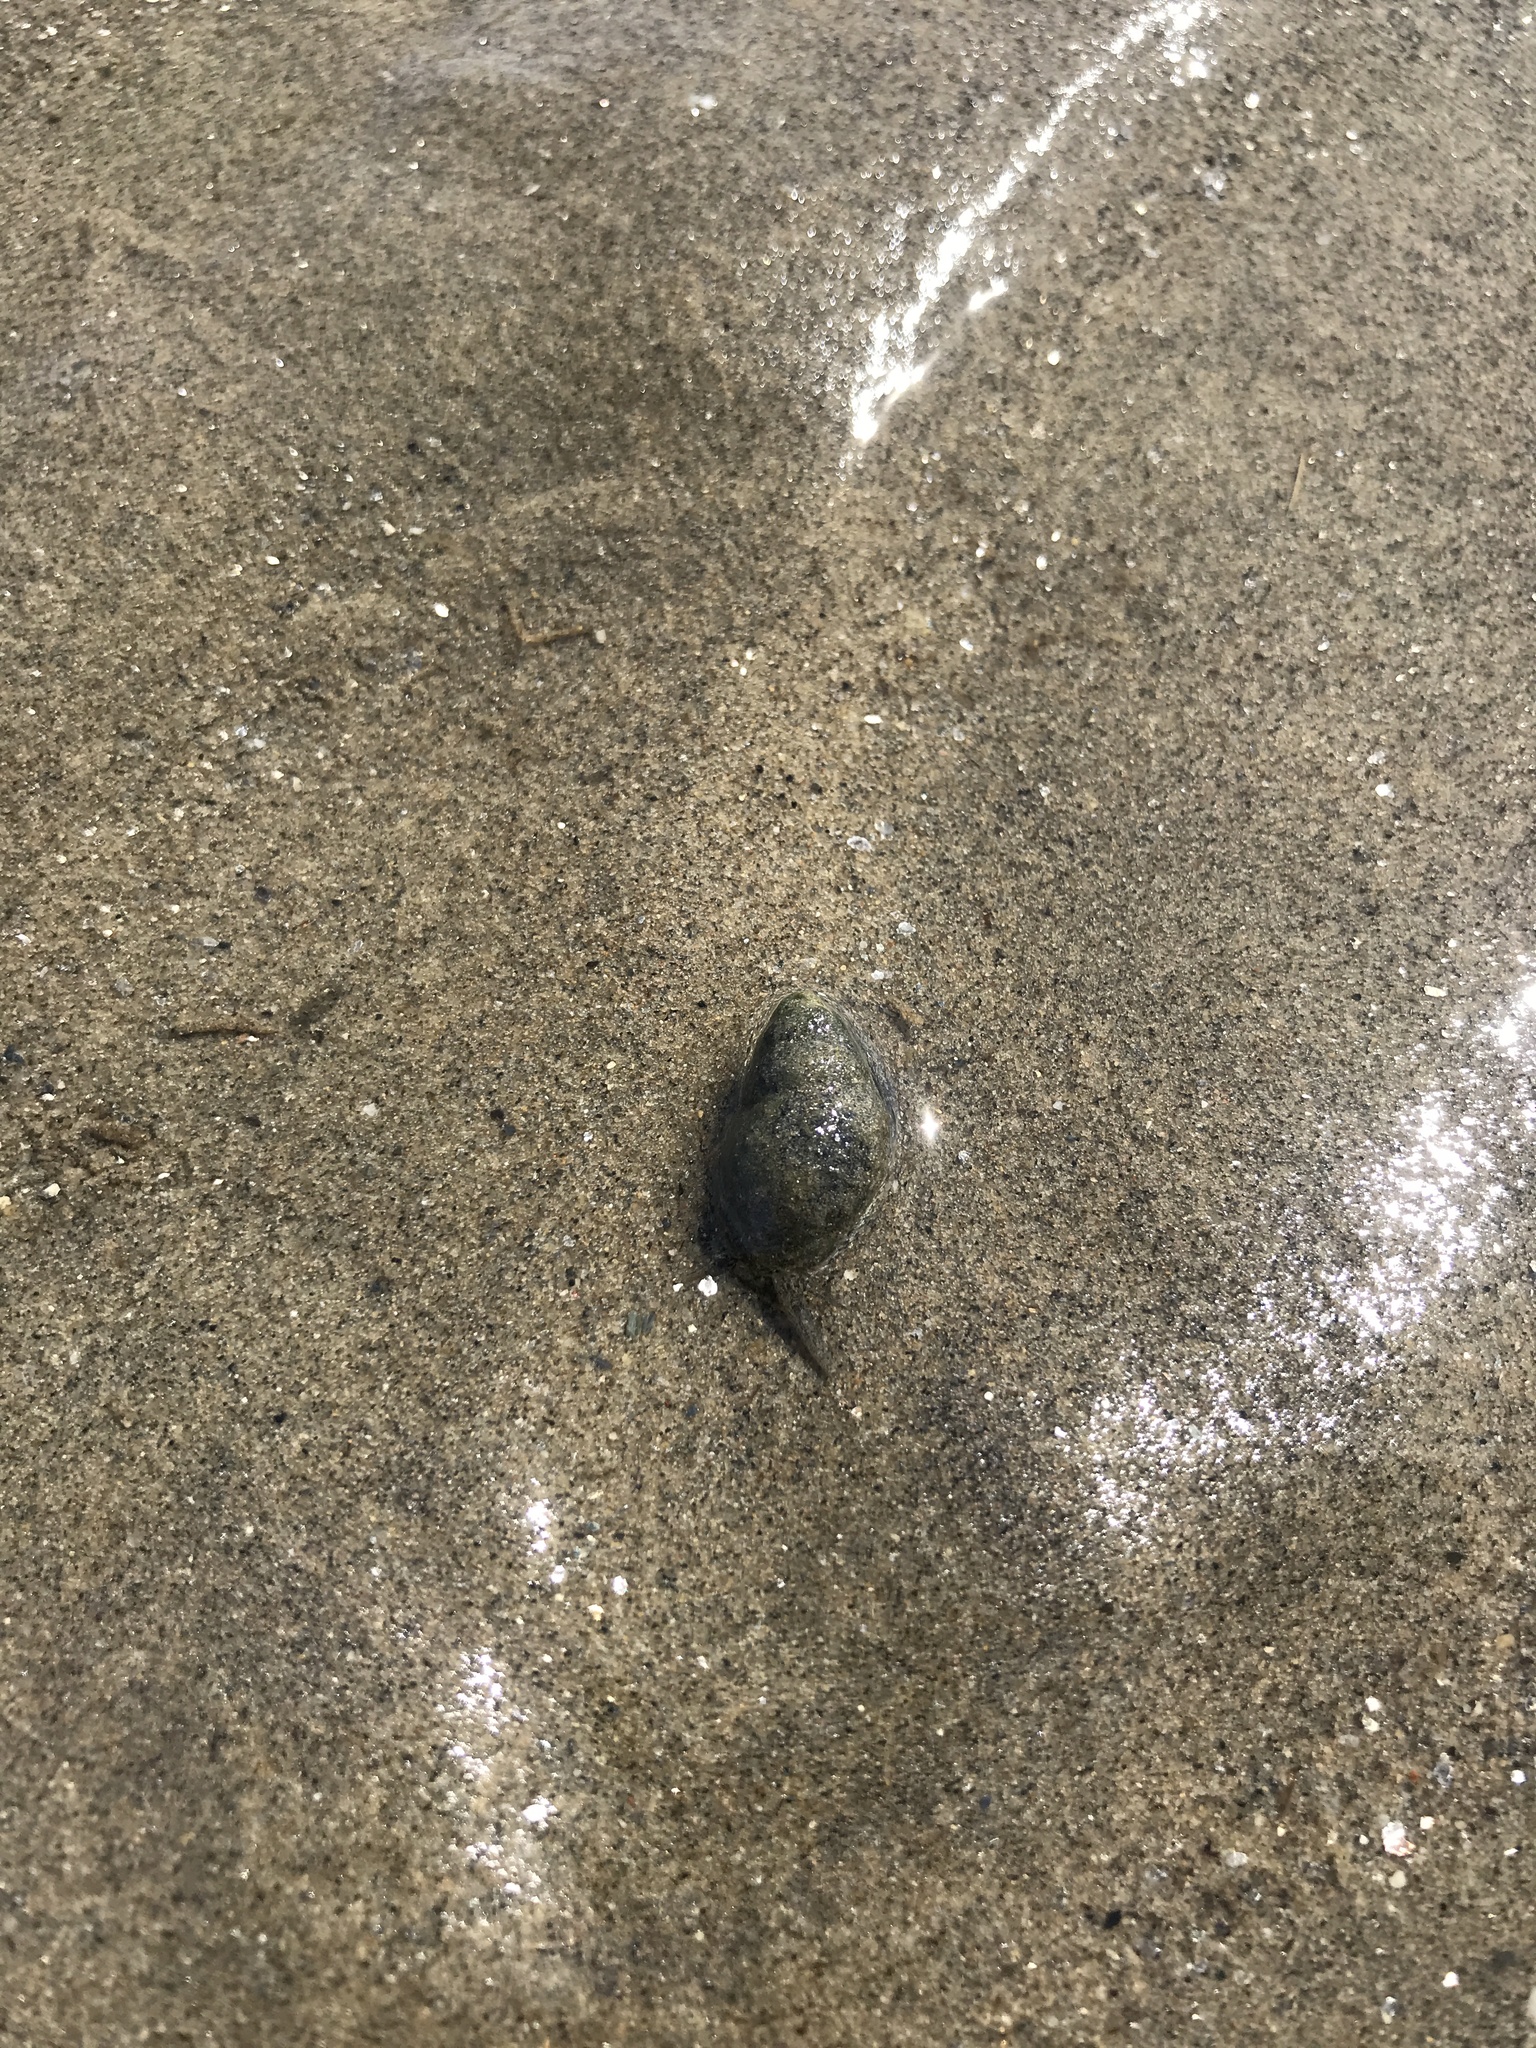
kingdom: Animalia
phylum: Mollusca
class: Gastropoda
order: Neogastropoda
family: Nassariidae
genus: Ilyanassa
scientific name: Ilyanassa obsoleta
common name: Eastern mudsnail
